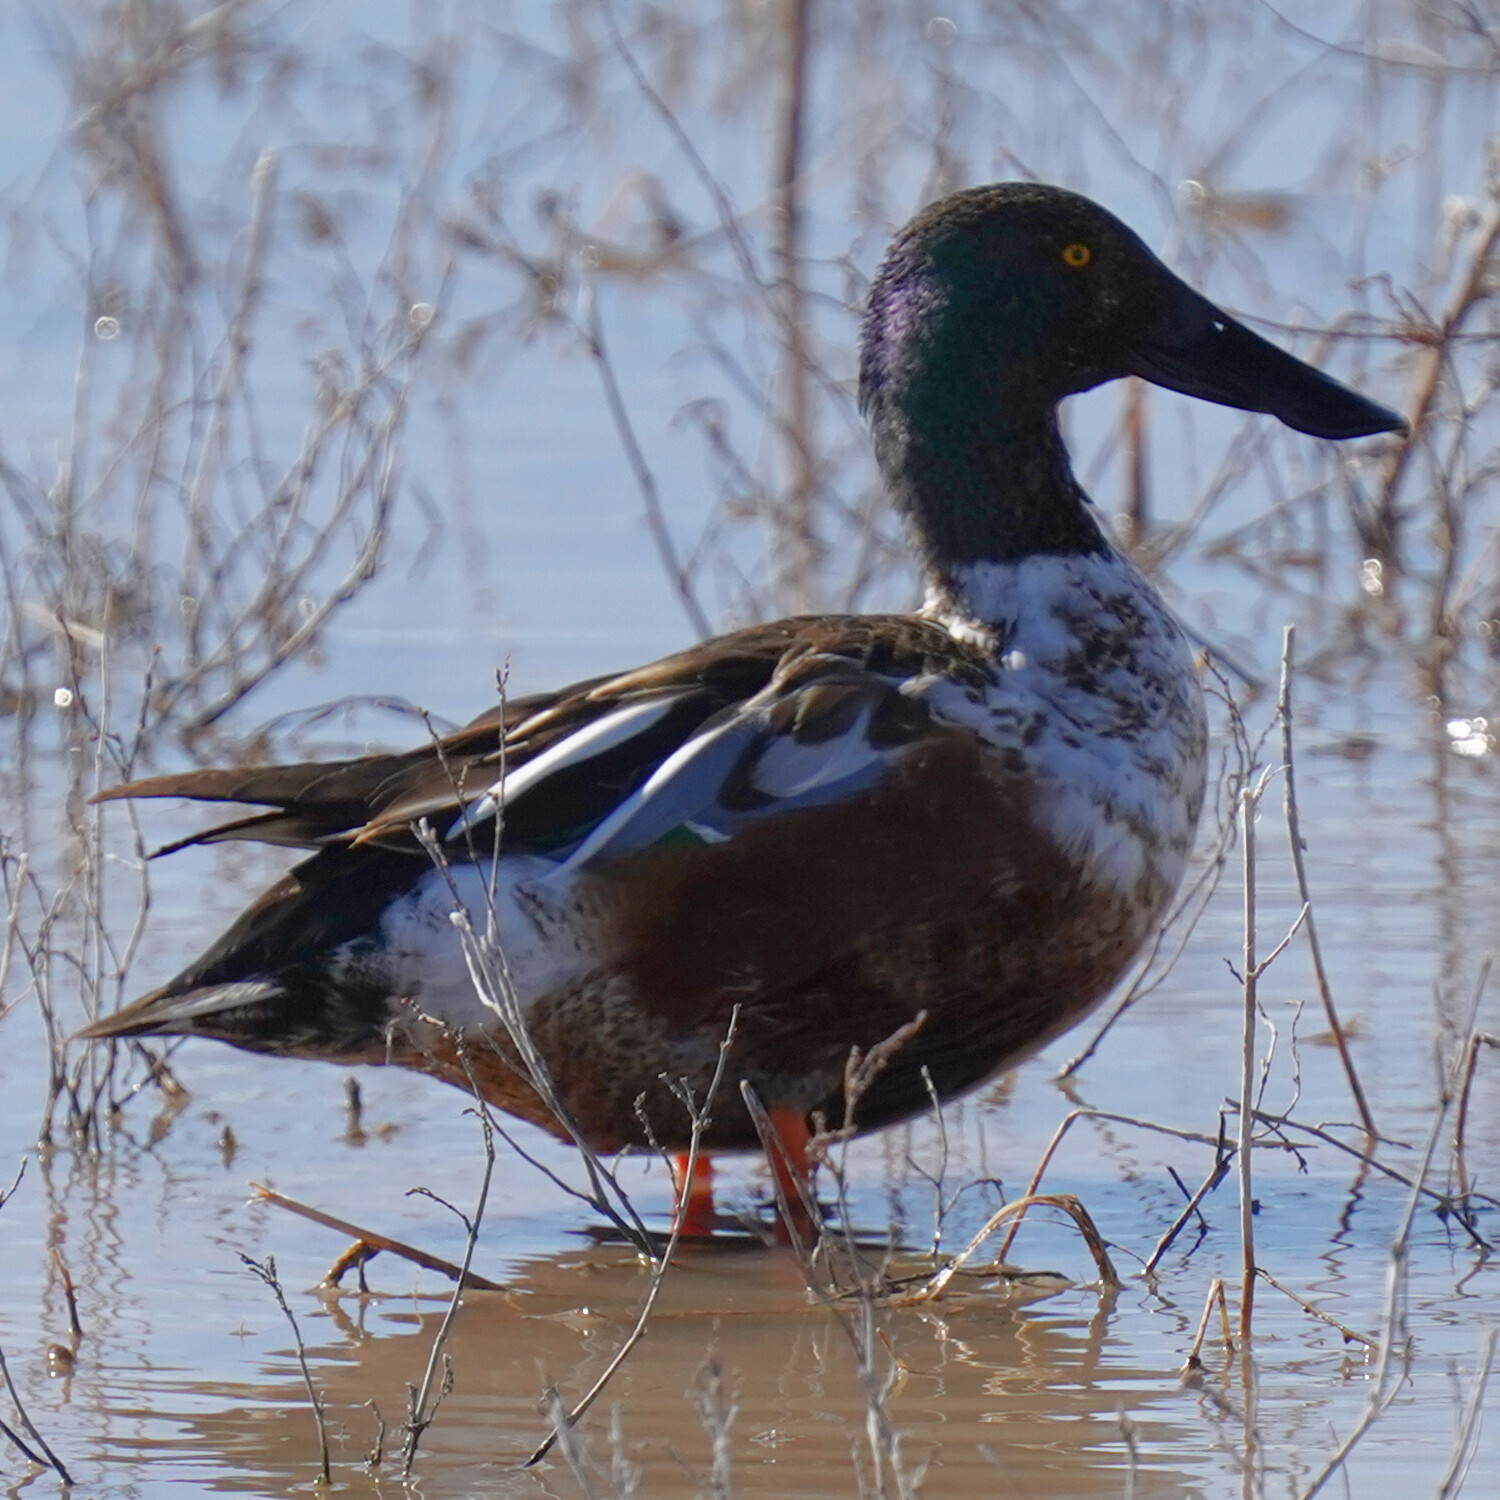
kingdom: Animalia
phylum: Chordata
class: Aves
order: Anseriformes
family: Anatidae
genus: Spatula
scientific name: Spatula clypeata
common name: Northern shoveler
